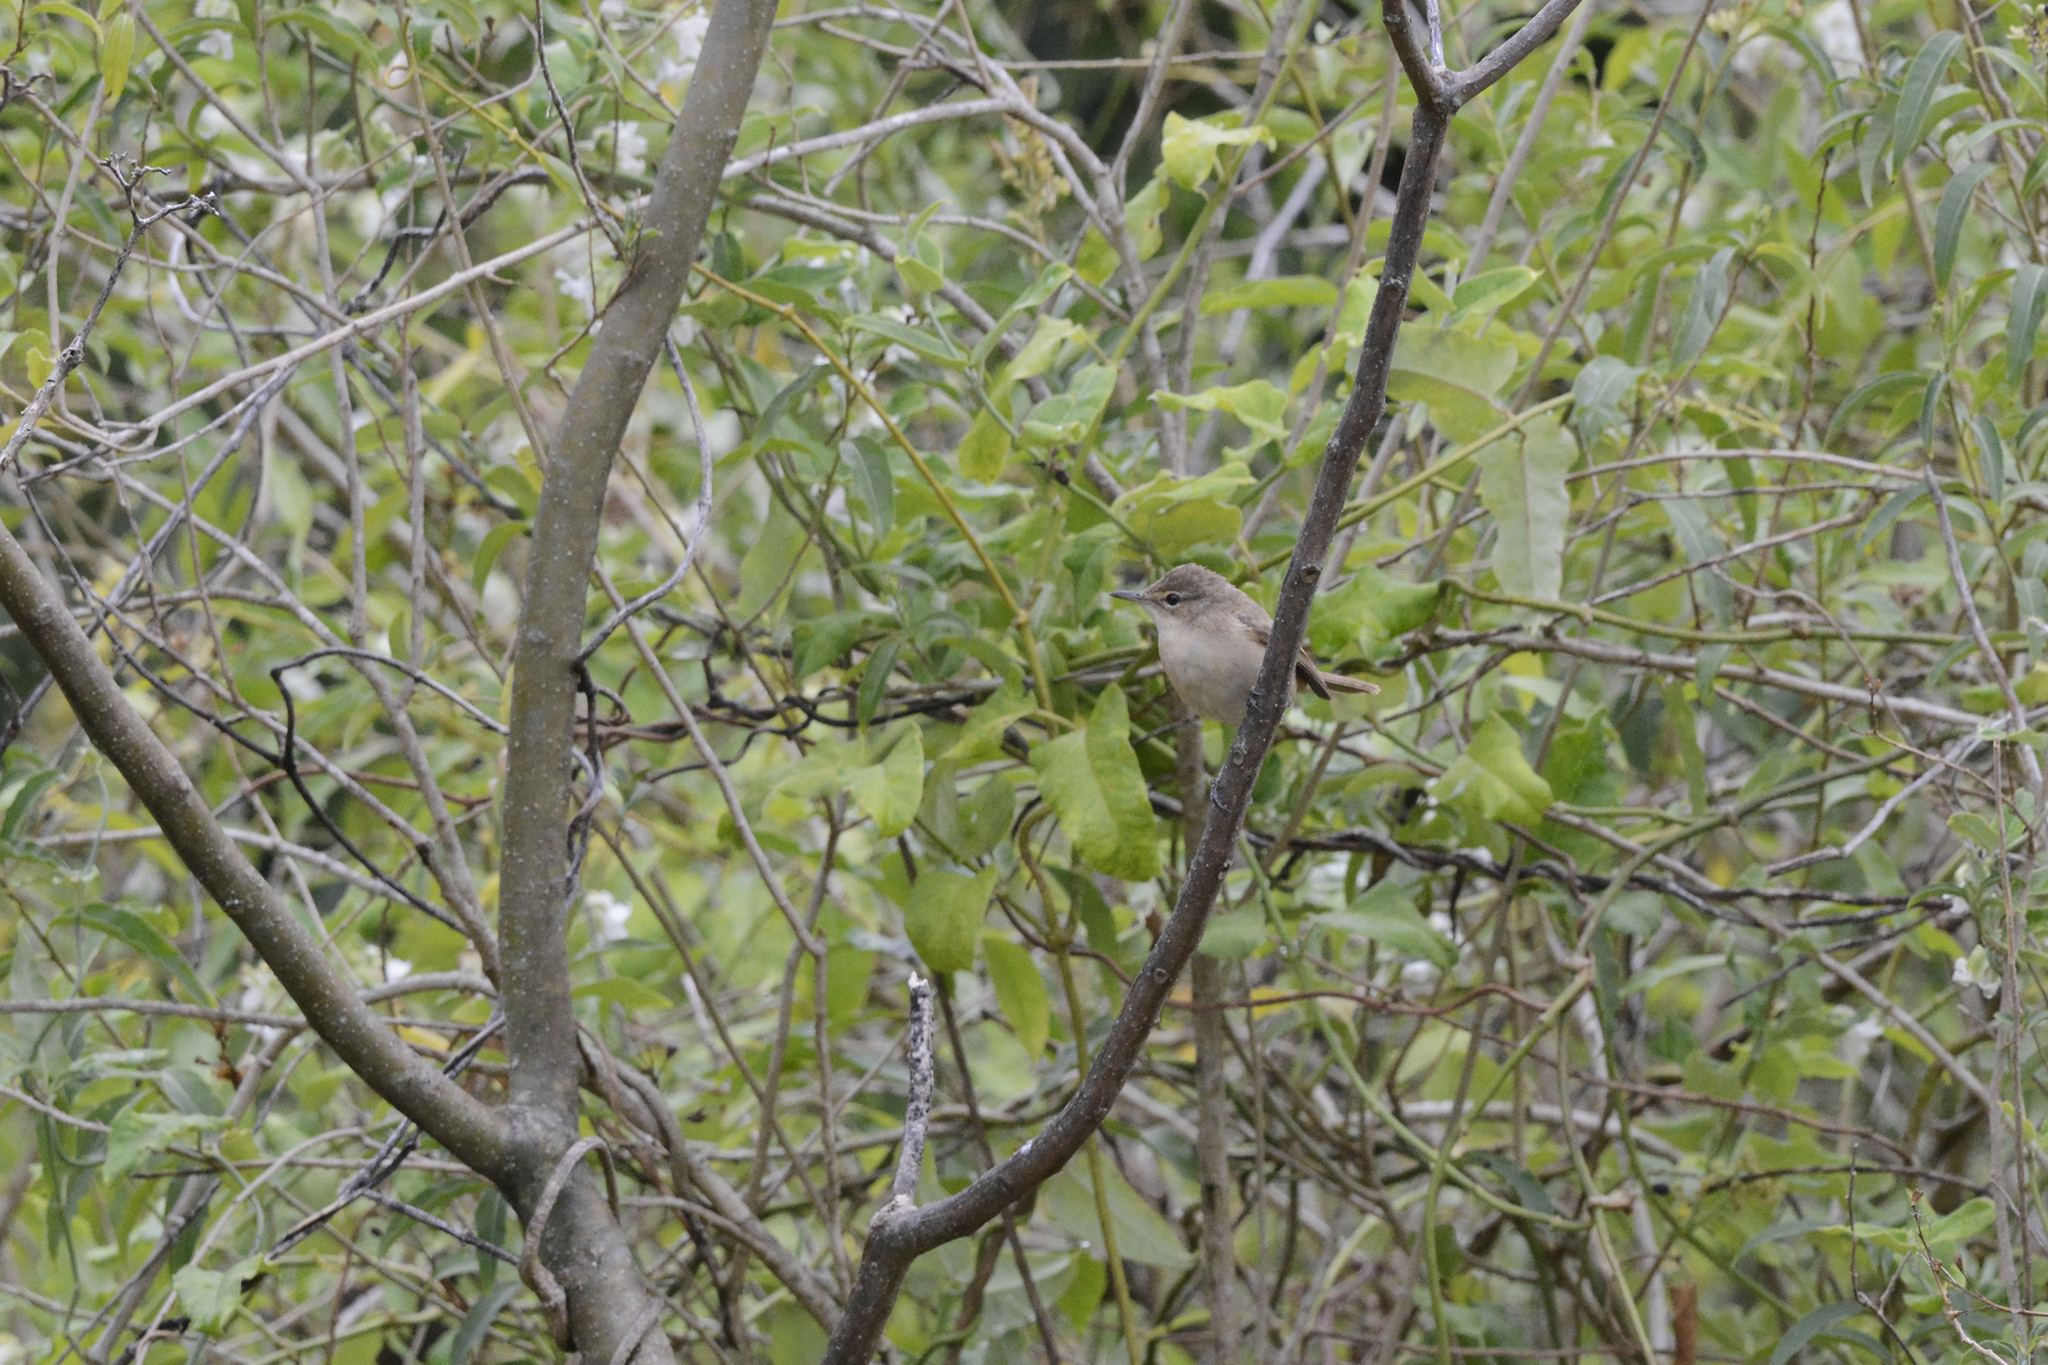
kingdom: Animalia
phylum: Chordata
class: Aves
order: Passeriformes
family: Acrocephalidae
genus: Acrocephalus
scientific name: Acrocephalus australis
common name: Australian reed warbler
